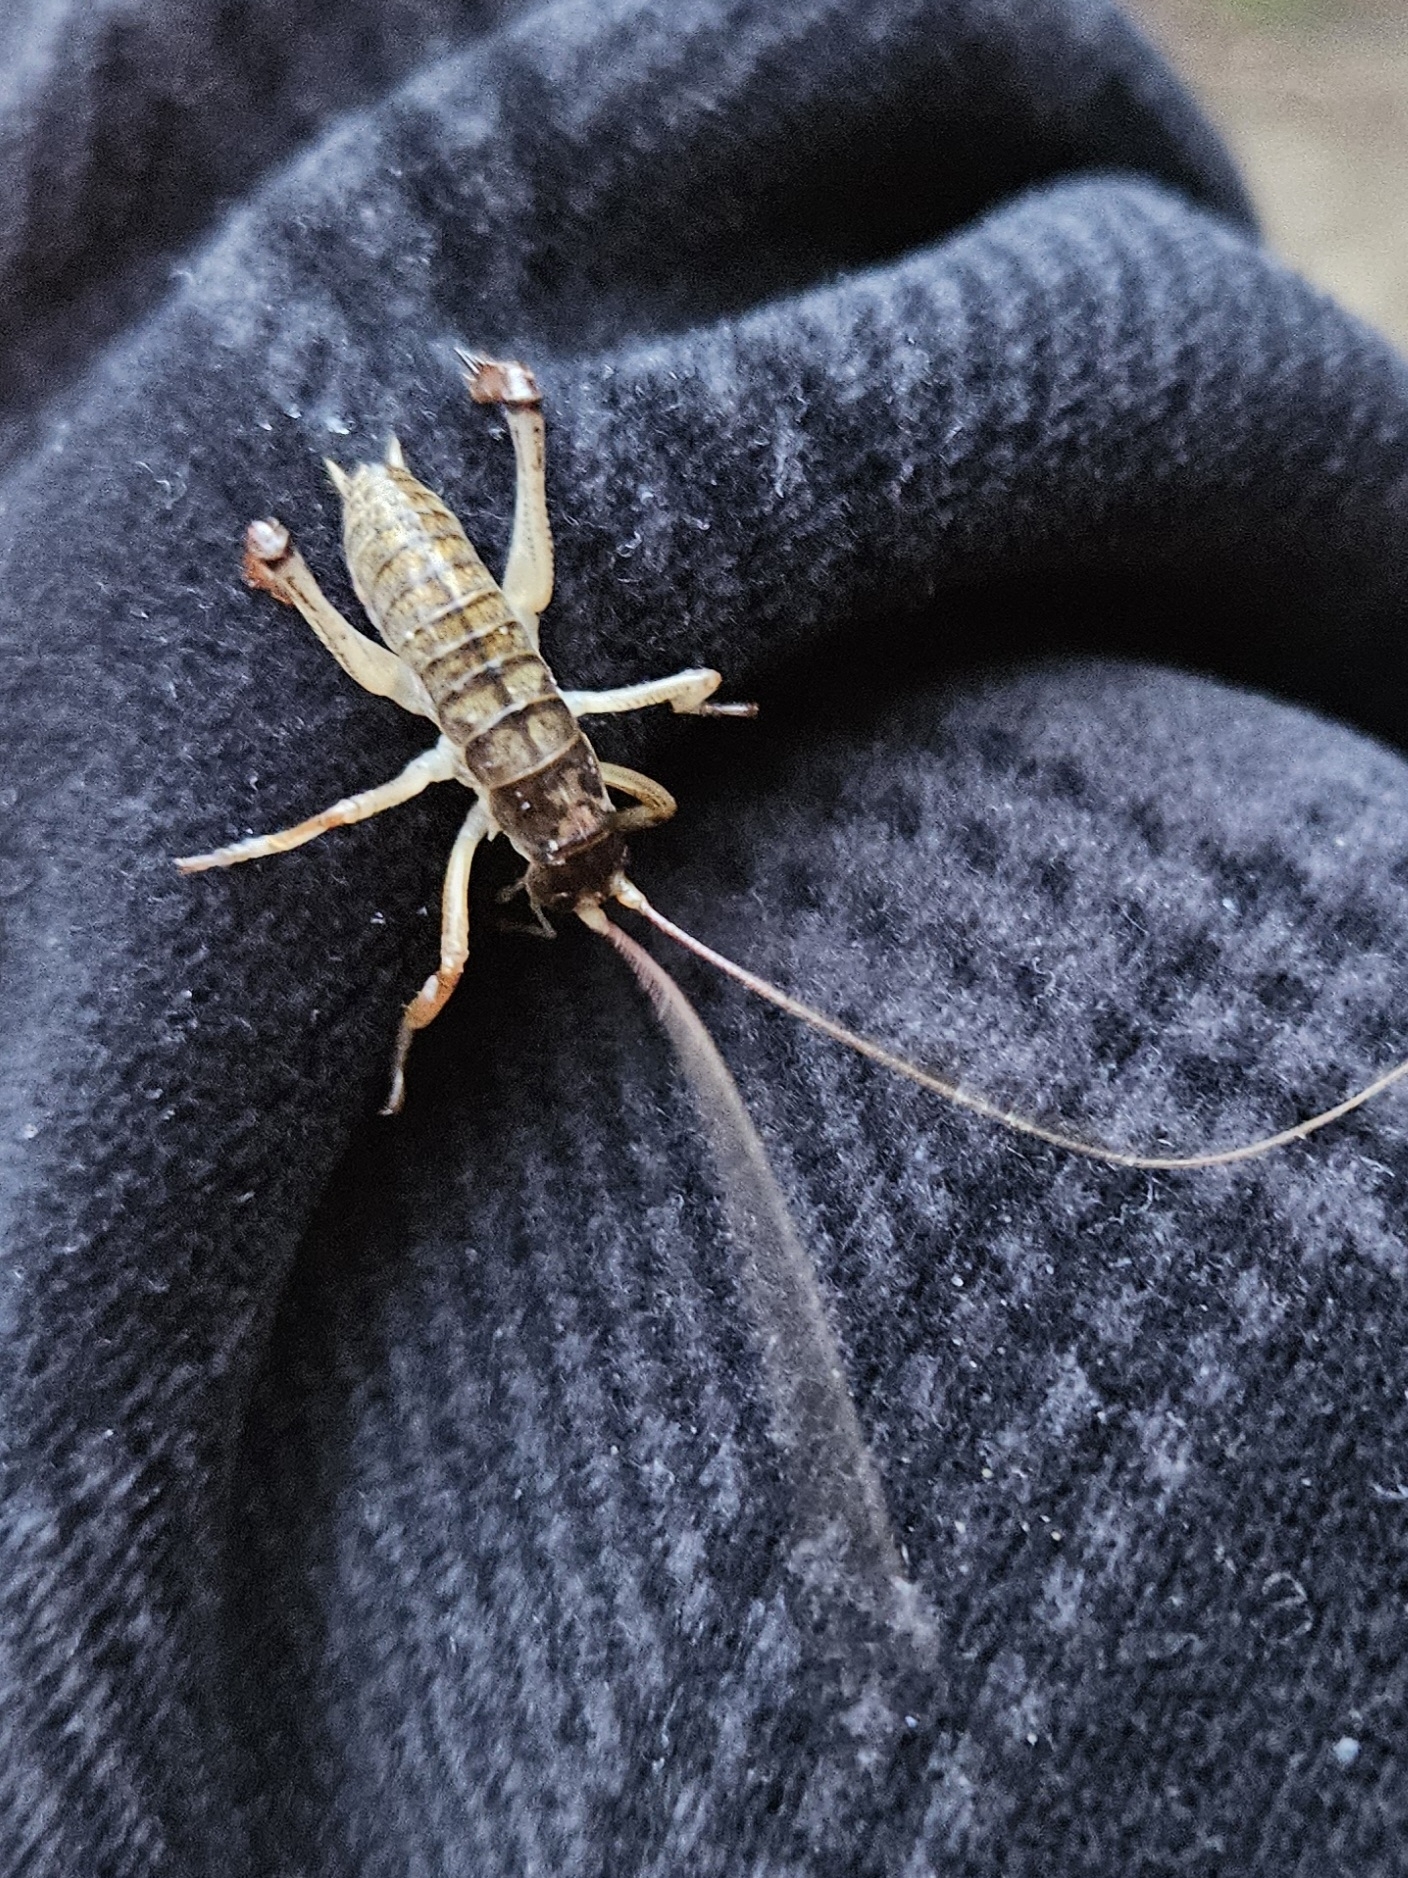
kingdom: Animalia
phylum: Arthropoda
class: Insecta
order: Orthoptera
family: Anostostomatidae
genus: Hemideina
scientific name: Hemideina thoracica
